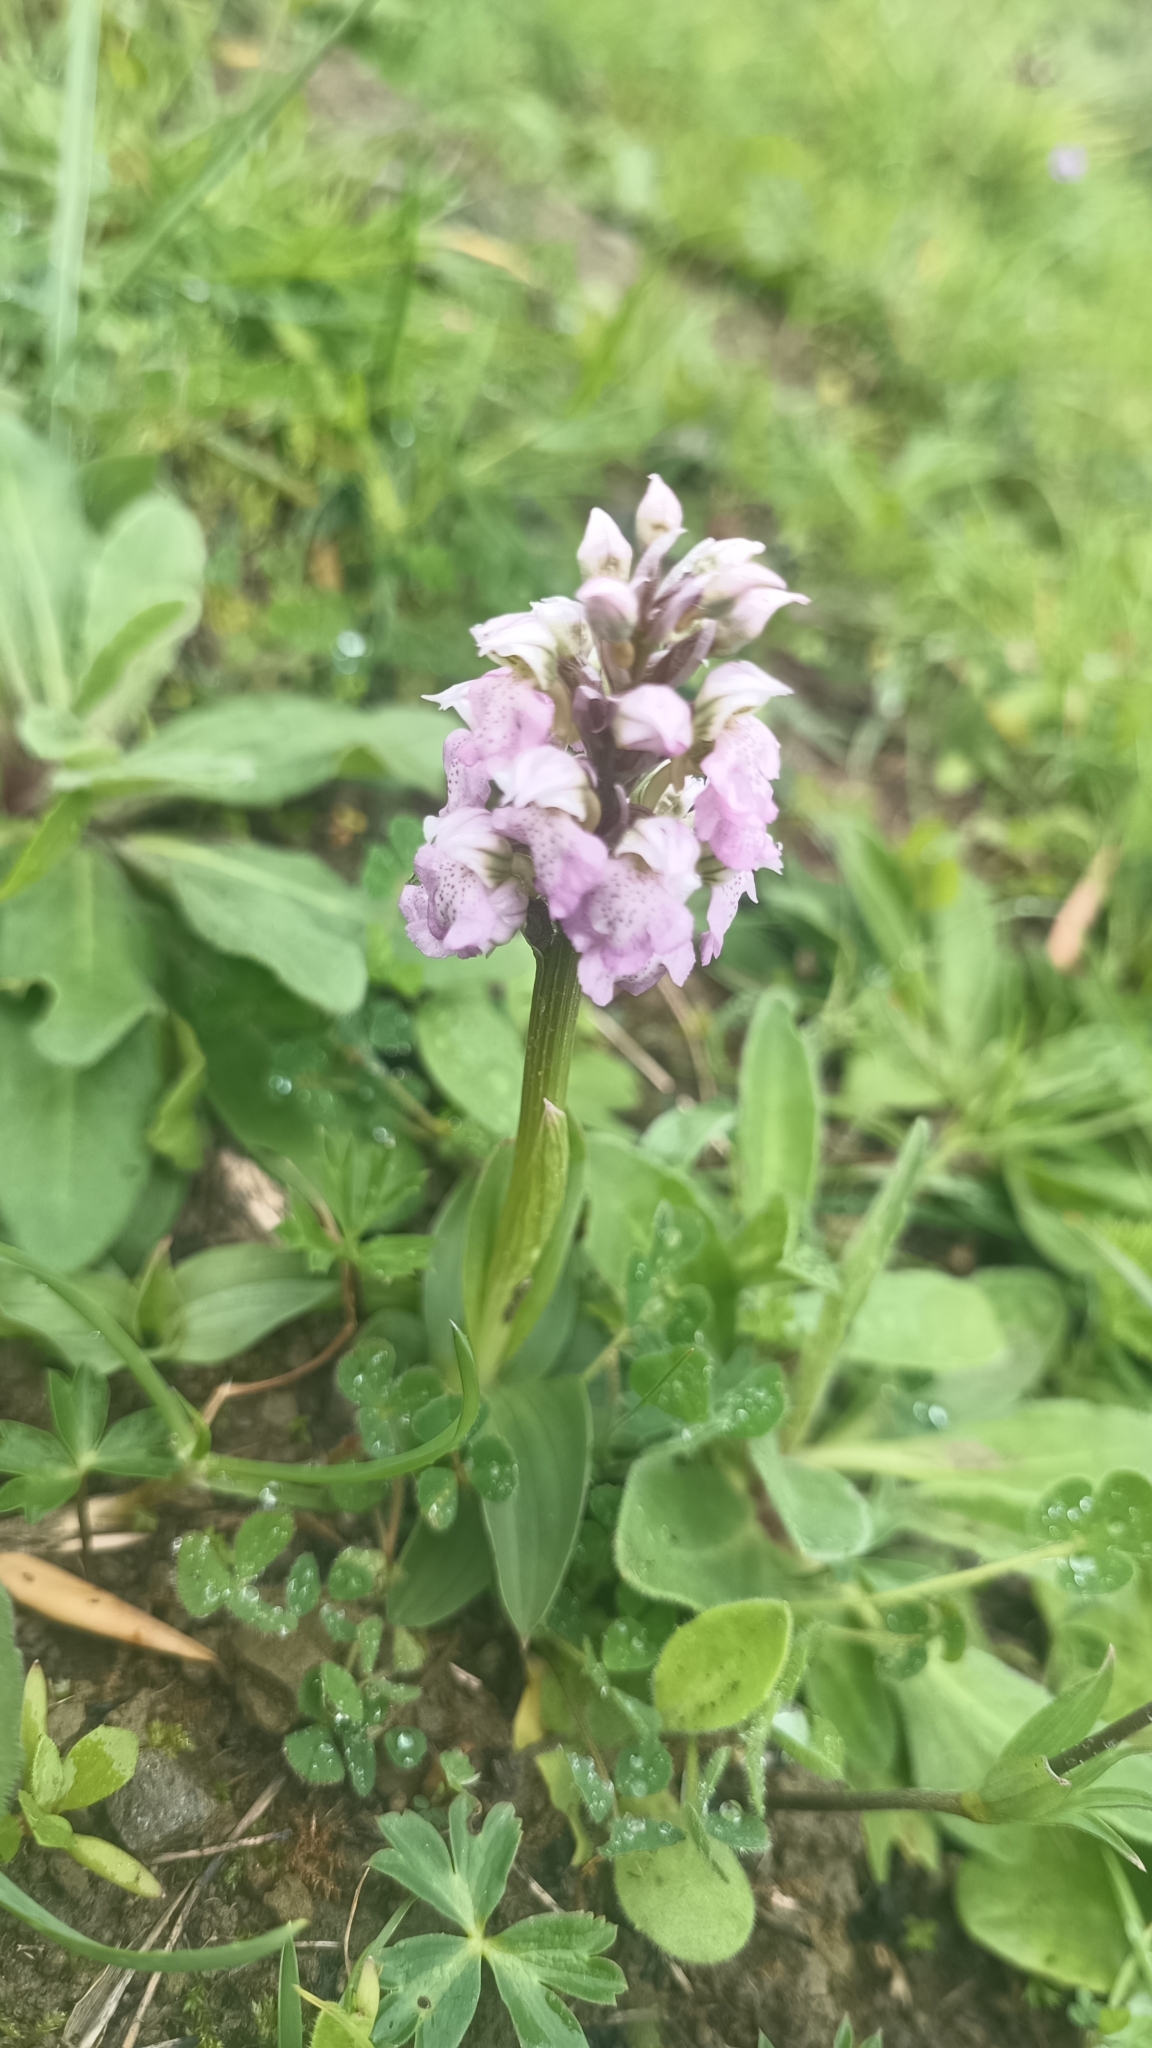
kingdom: Plantae
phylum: Tracheophyta
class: Liliopsida
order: Asparagales
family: Orchidaceae
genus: Neotinea
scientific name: Neotinea lactea
